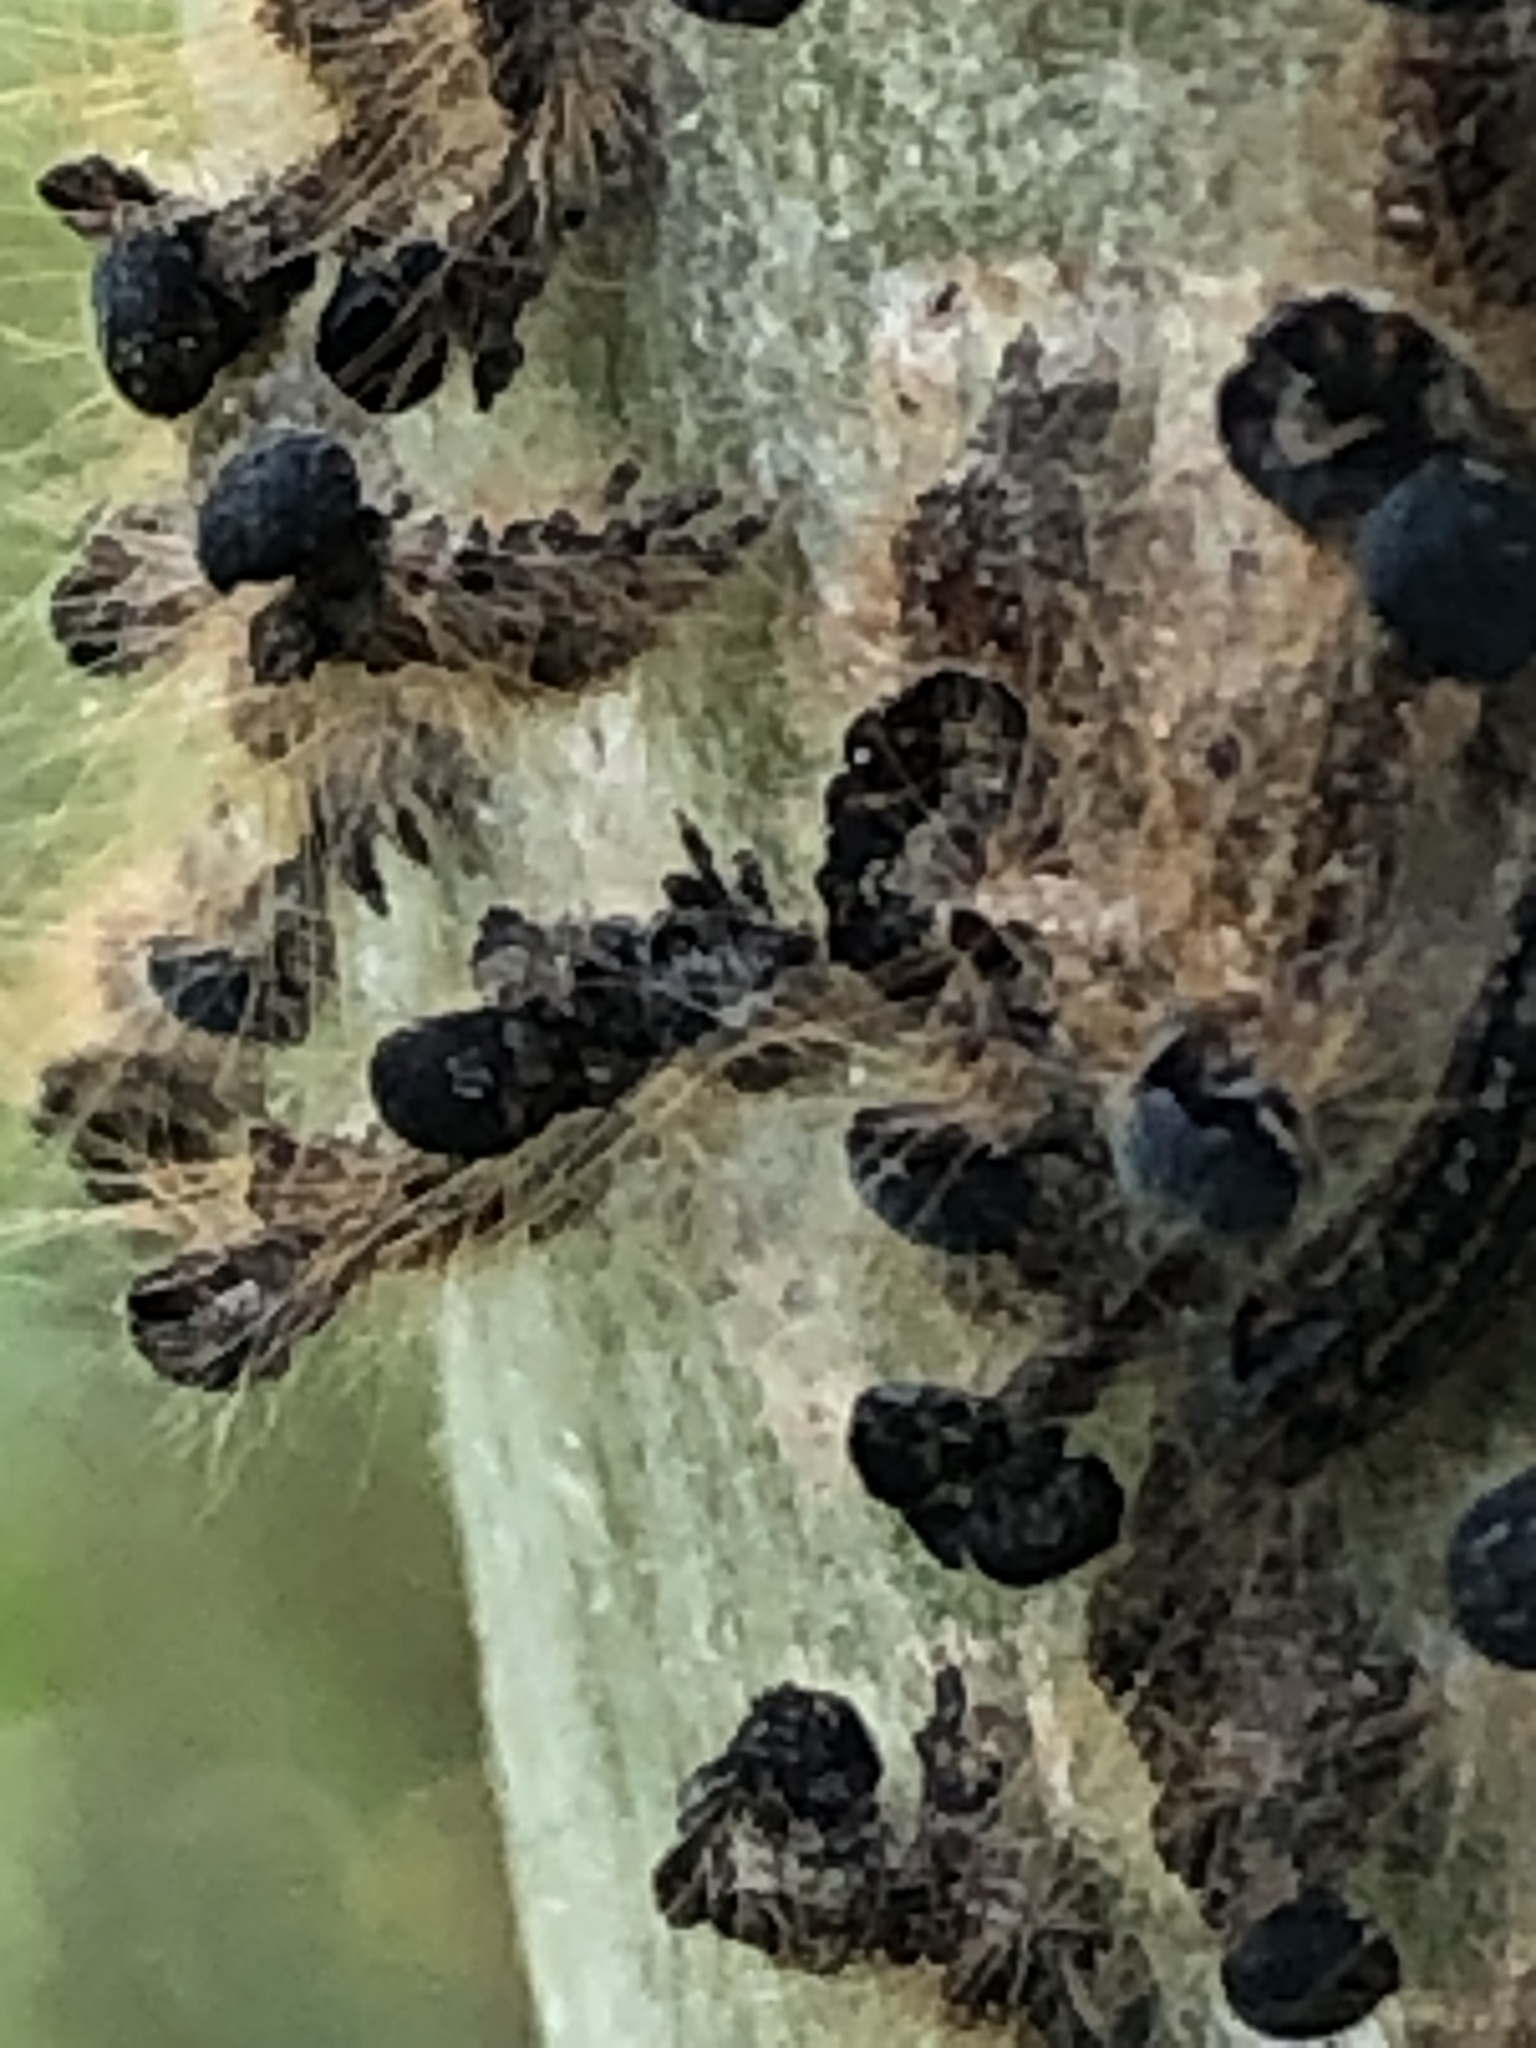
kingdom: Animalia
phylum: Arthropoda
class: Insecta
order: Lepidoptera
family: Lasiocampidae
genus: Malacosoma
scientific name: Malacosoma disstria
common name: Forest tent caterpillar
